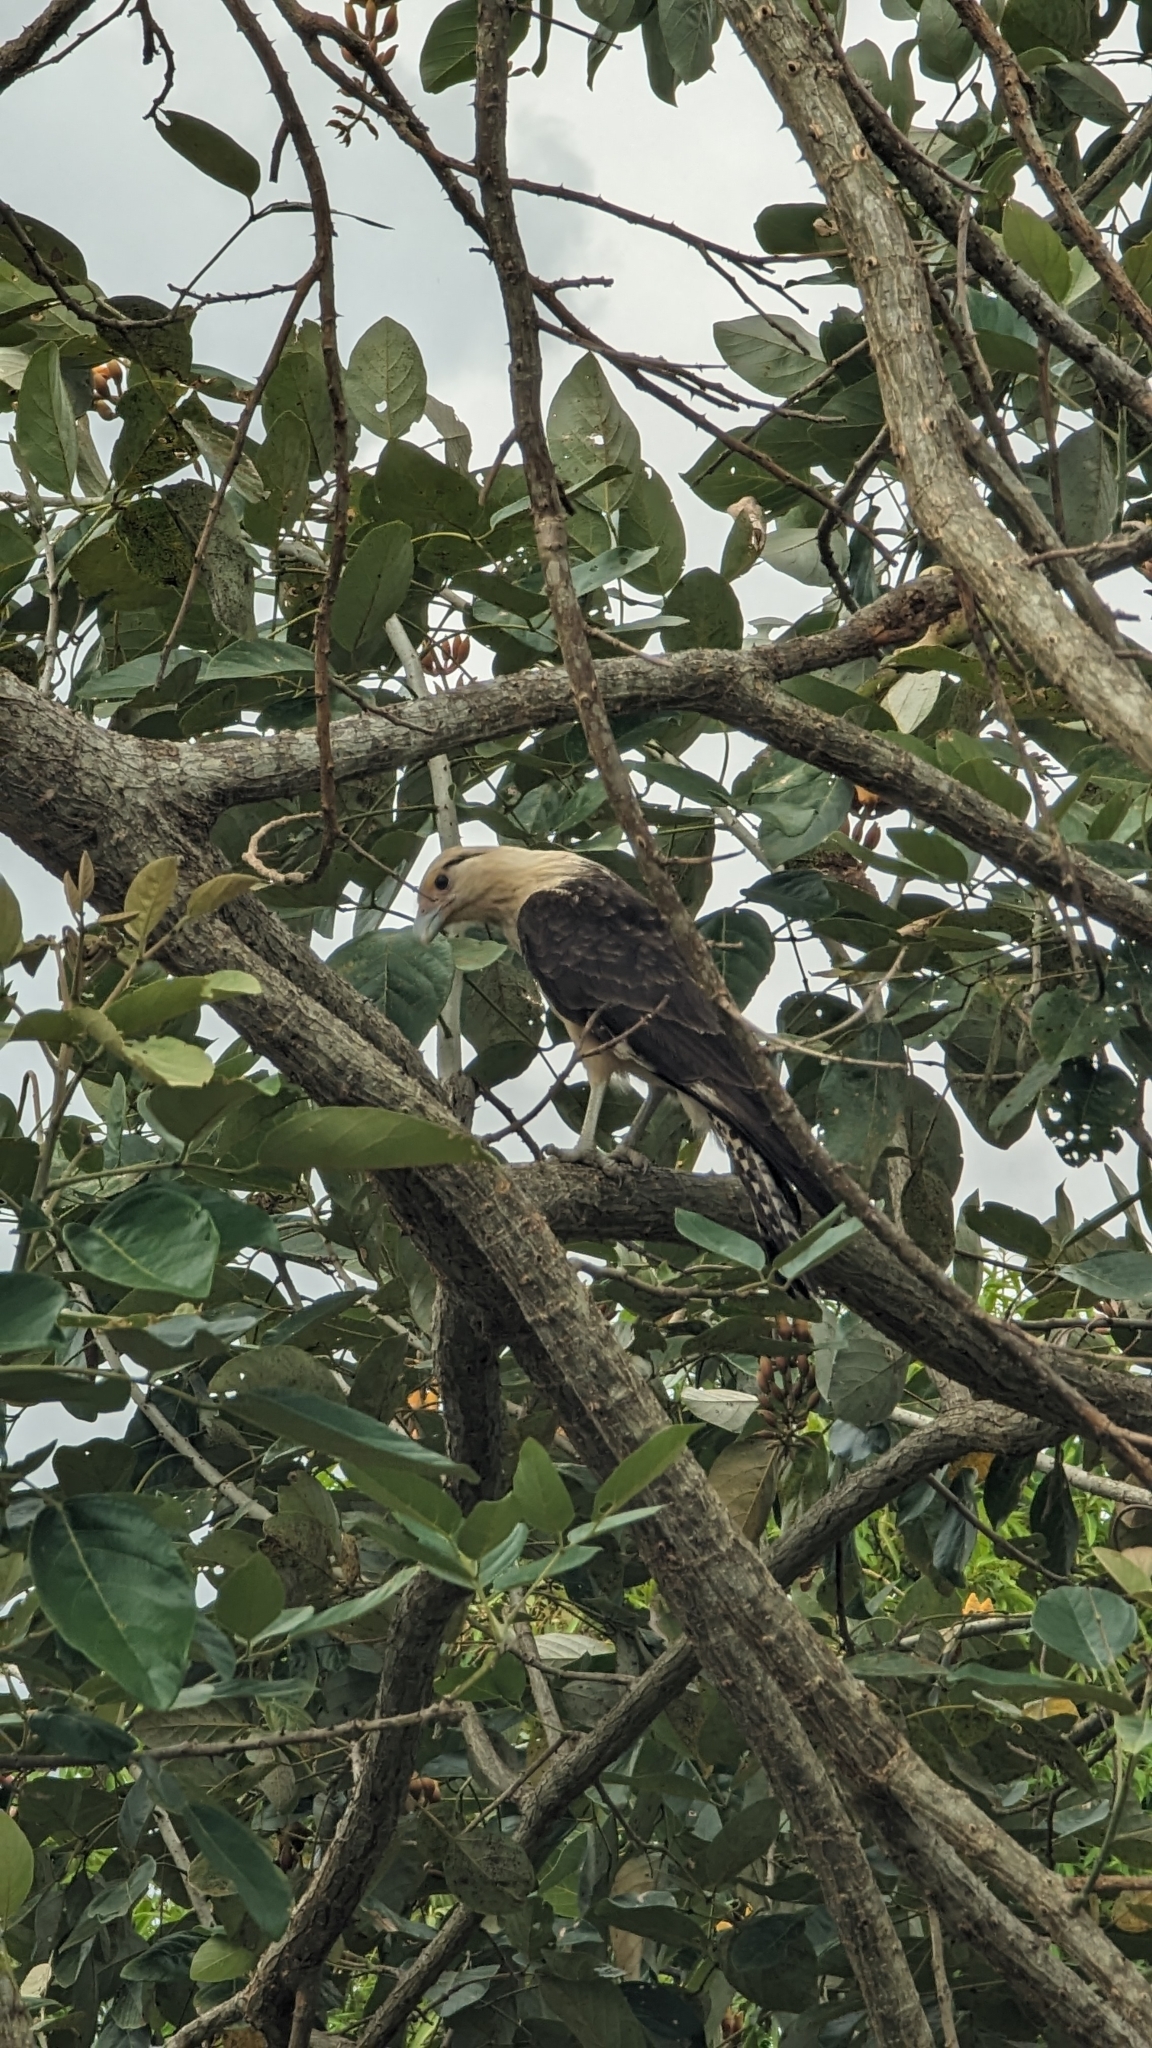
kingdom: Animalia
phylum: Chordata
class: Aves
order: Falconiformes
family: Falconidae
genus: Daptrius
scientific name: Daptrius
